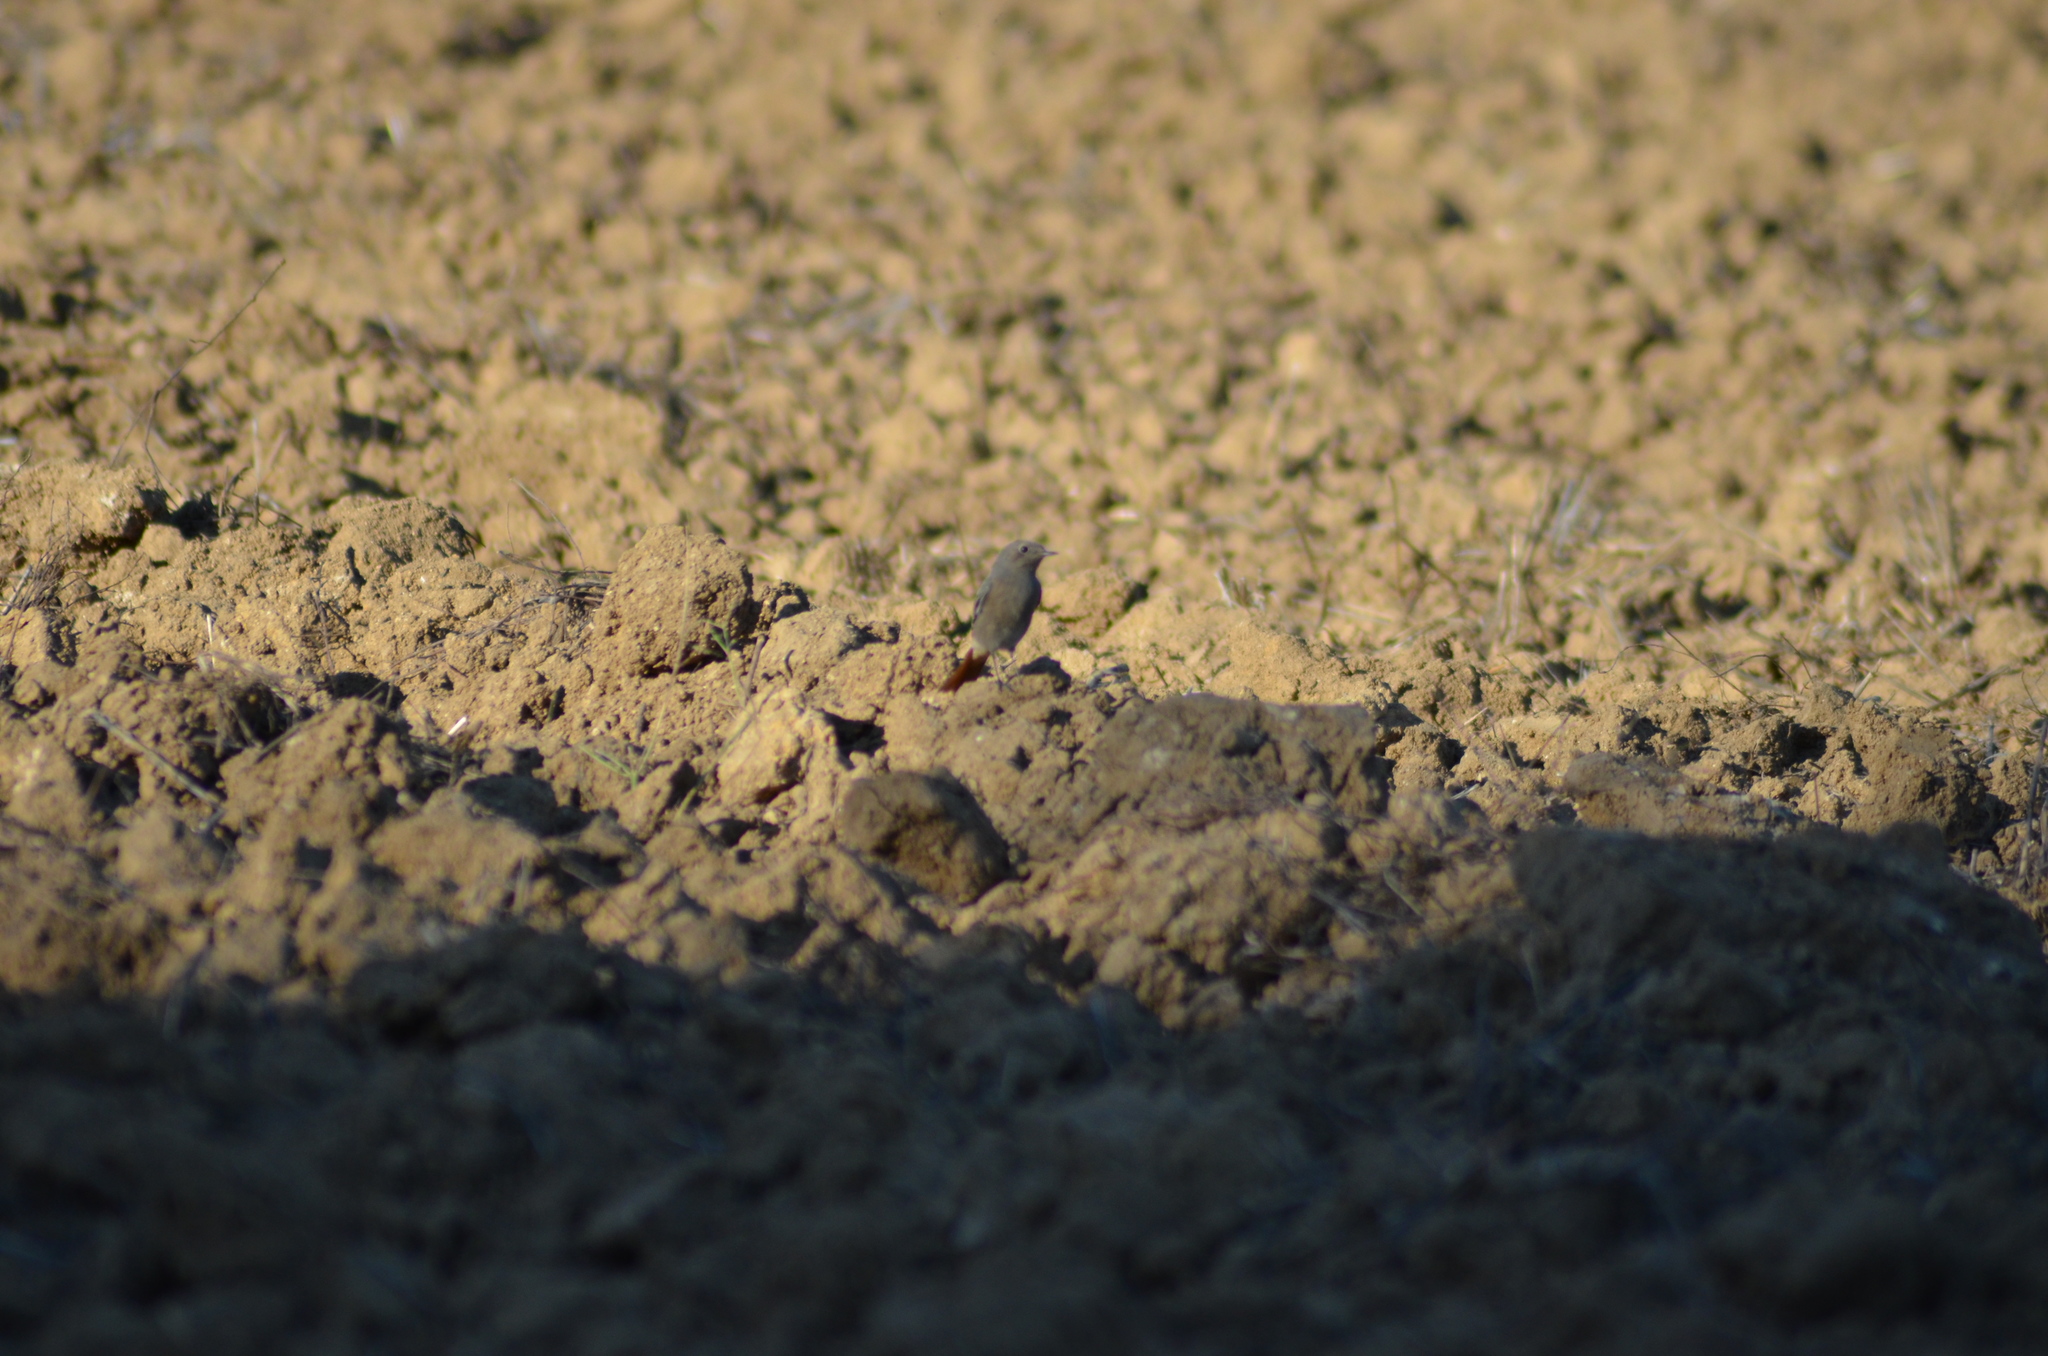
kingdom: Animalia
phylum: Chordata
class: Aves
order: Passeriformes
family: Muscicapidae
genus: Phoenicurus
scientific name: Phoenicurus ochruros
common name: Black redstart
